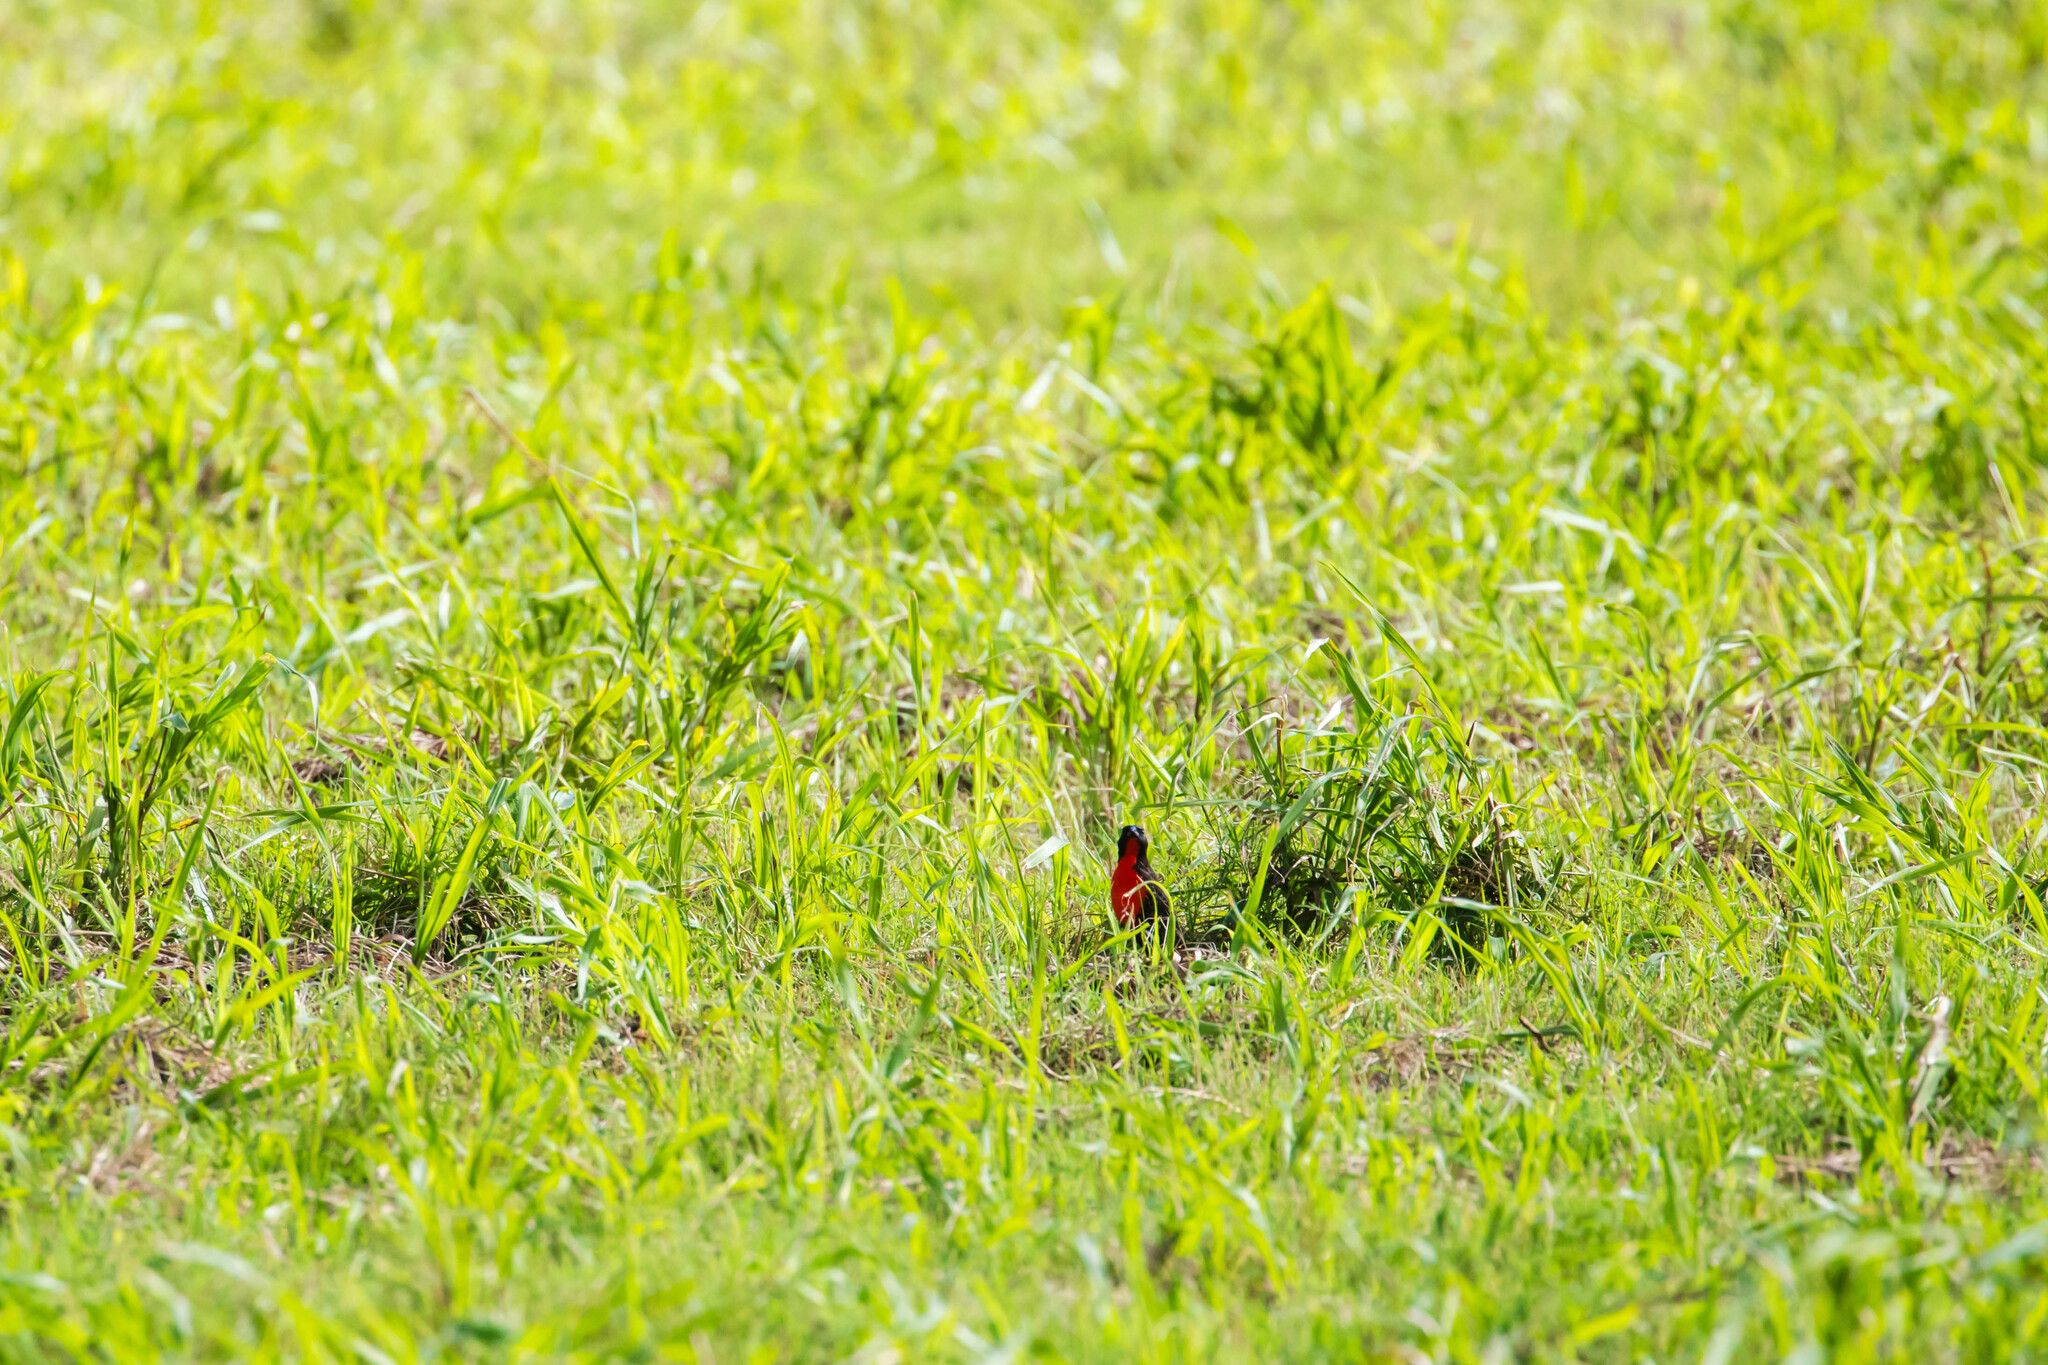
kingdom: Animalia
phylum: Chordata
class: Aves
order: Passeriformes
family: Icteridae
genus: Sturnella
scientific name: Sturnella militaris
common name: Red-breasted blackbird
